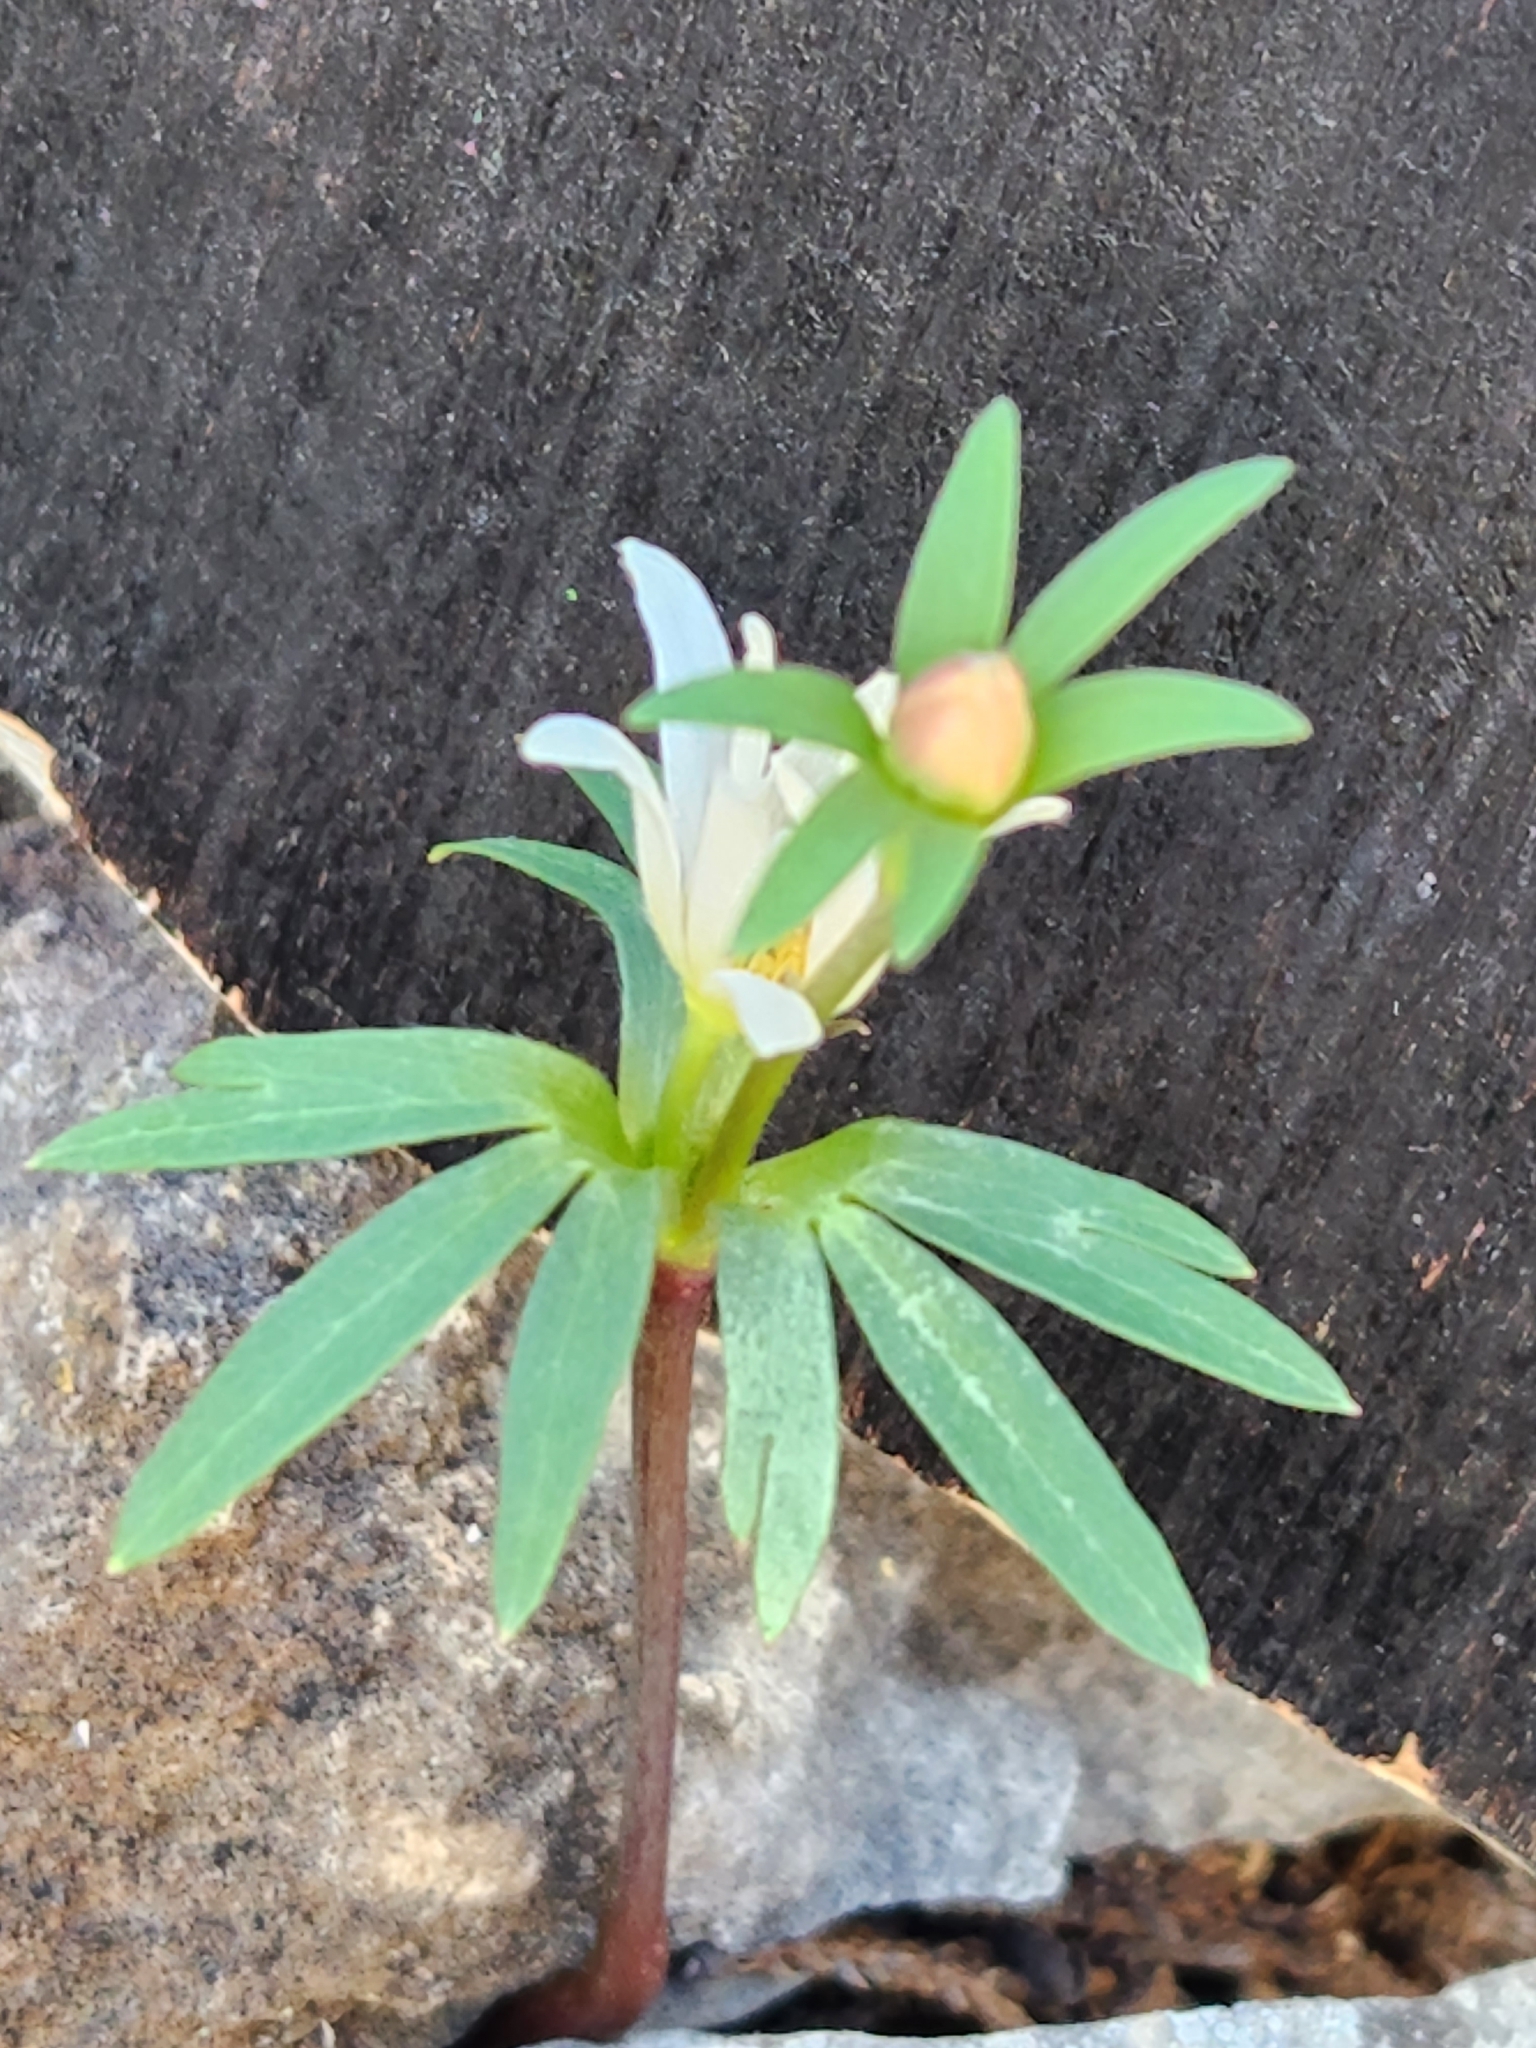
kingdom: Plantae
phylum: Tracheophyta
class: Magnoliopsida
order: Ranunculales
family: Ranunculaceae
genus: Anemone
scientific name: Anemone edwardsiana
